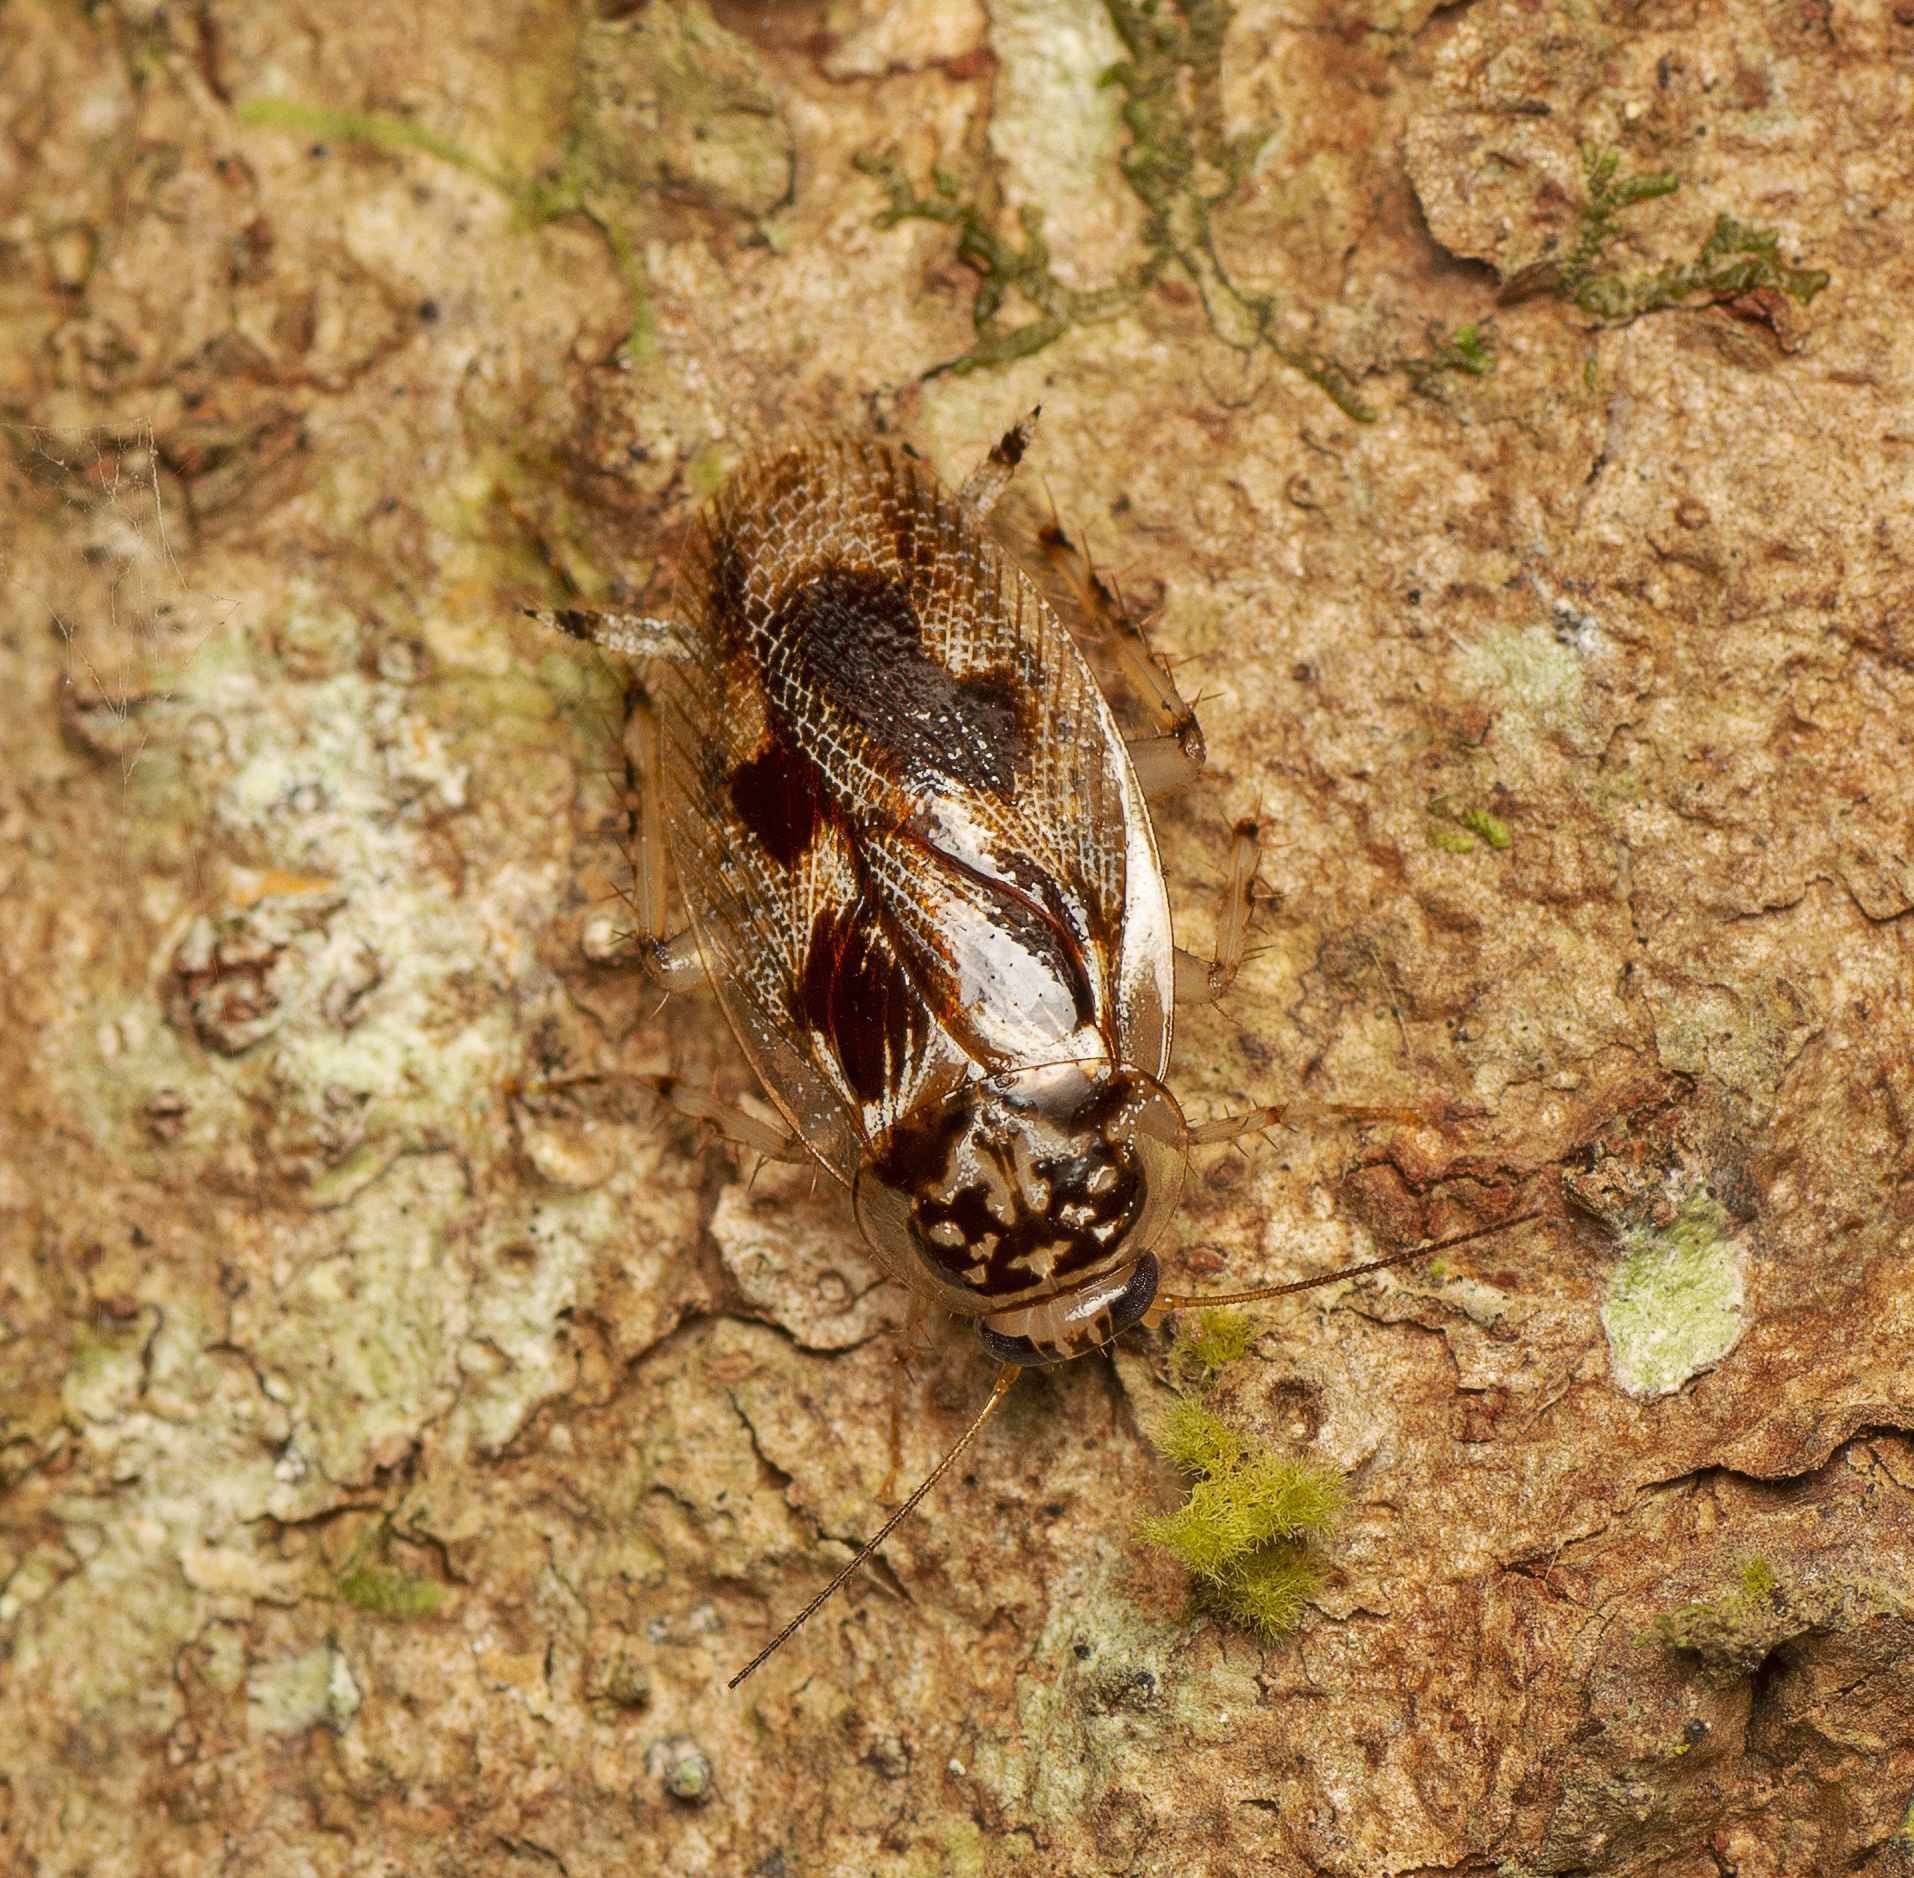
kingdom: Animalia
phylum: Arthropoda
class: Insecta
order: Blattodea
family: Ectobiidae
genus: Allacta
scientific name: Allacta australiensis
